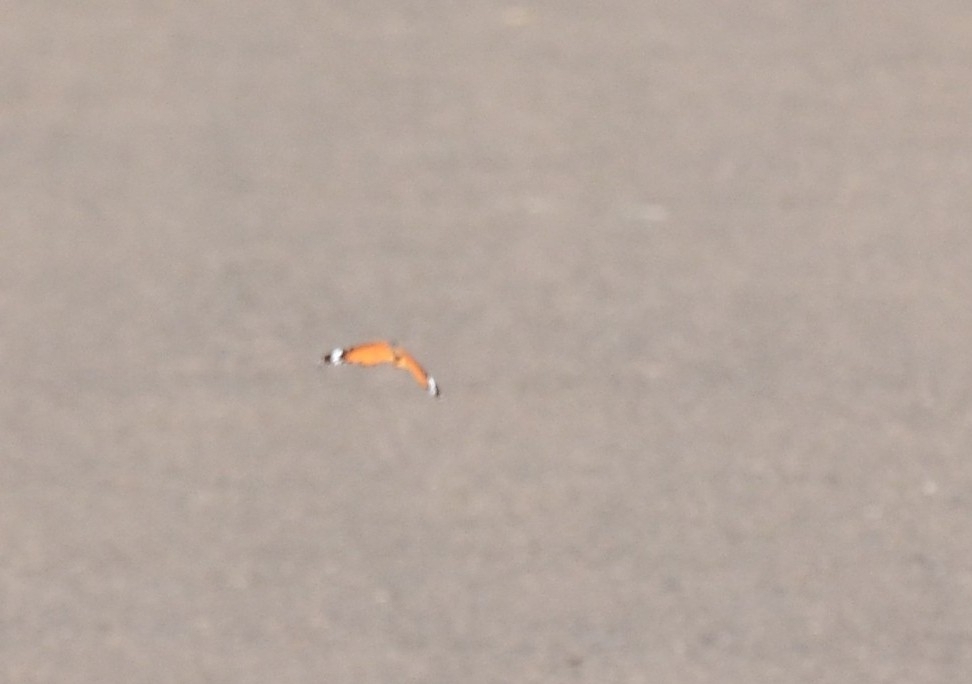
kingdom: Animalia
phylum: Arthropoda
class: Insecta
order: Lepidoptera
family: Nymphalidae
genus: Danaus
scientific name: Danaus chrysippus
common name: Plain tiger
